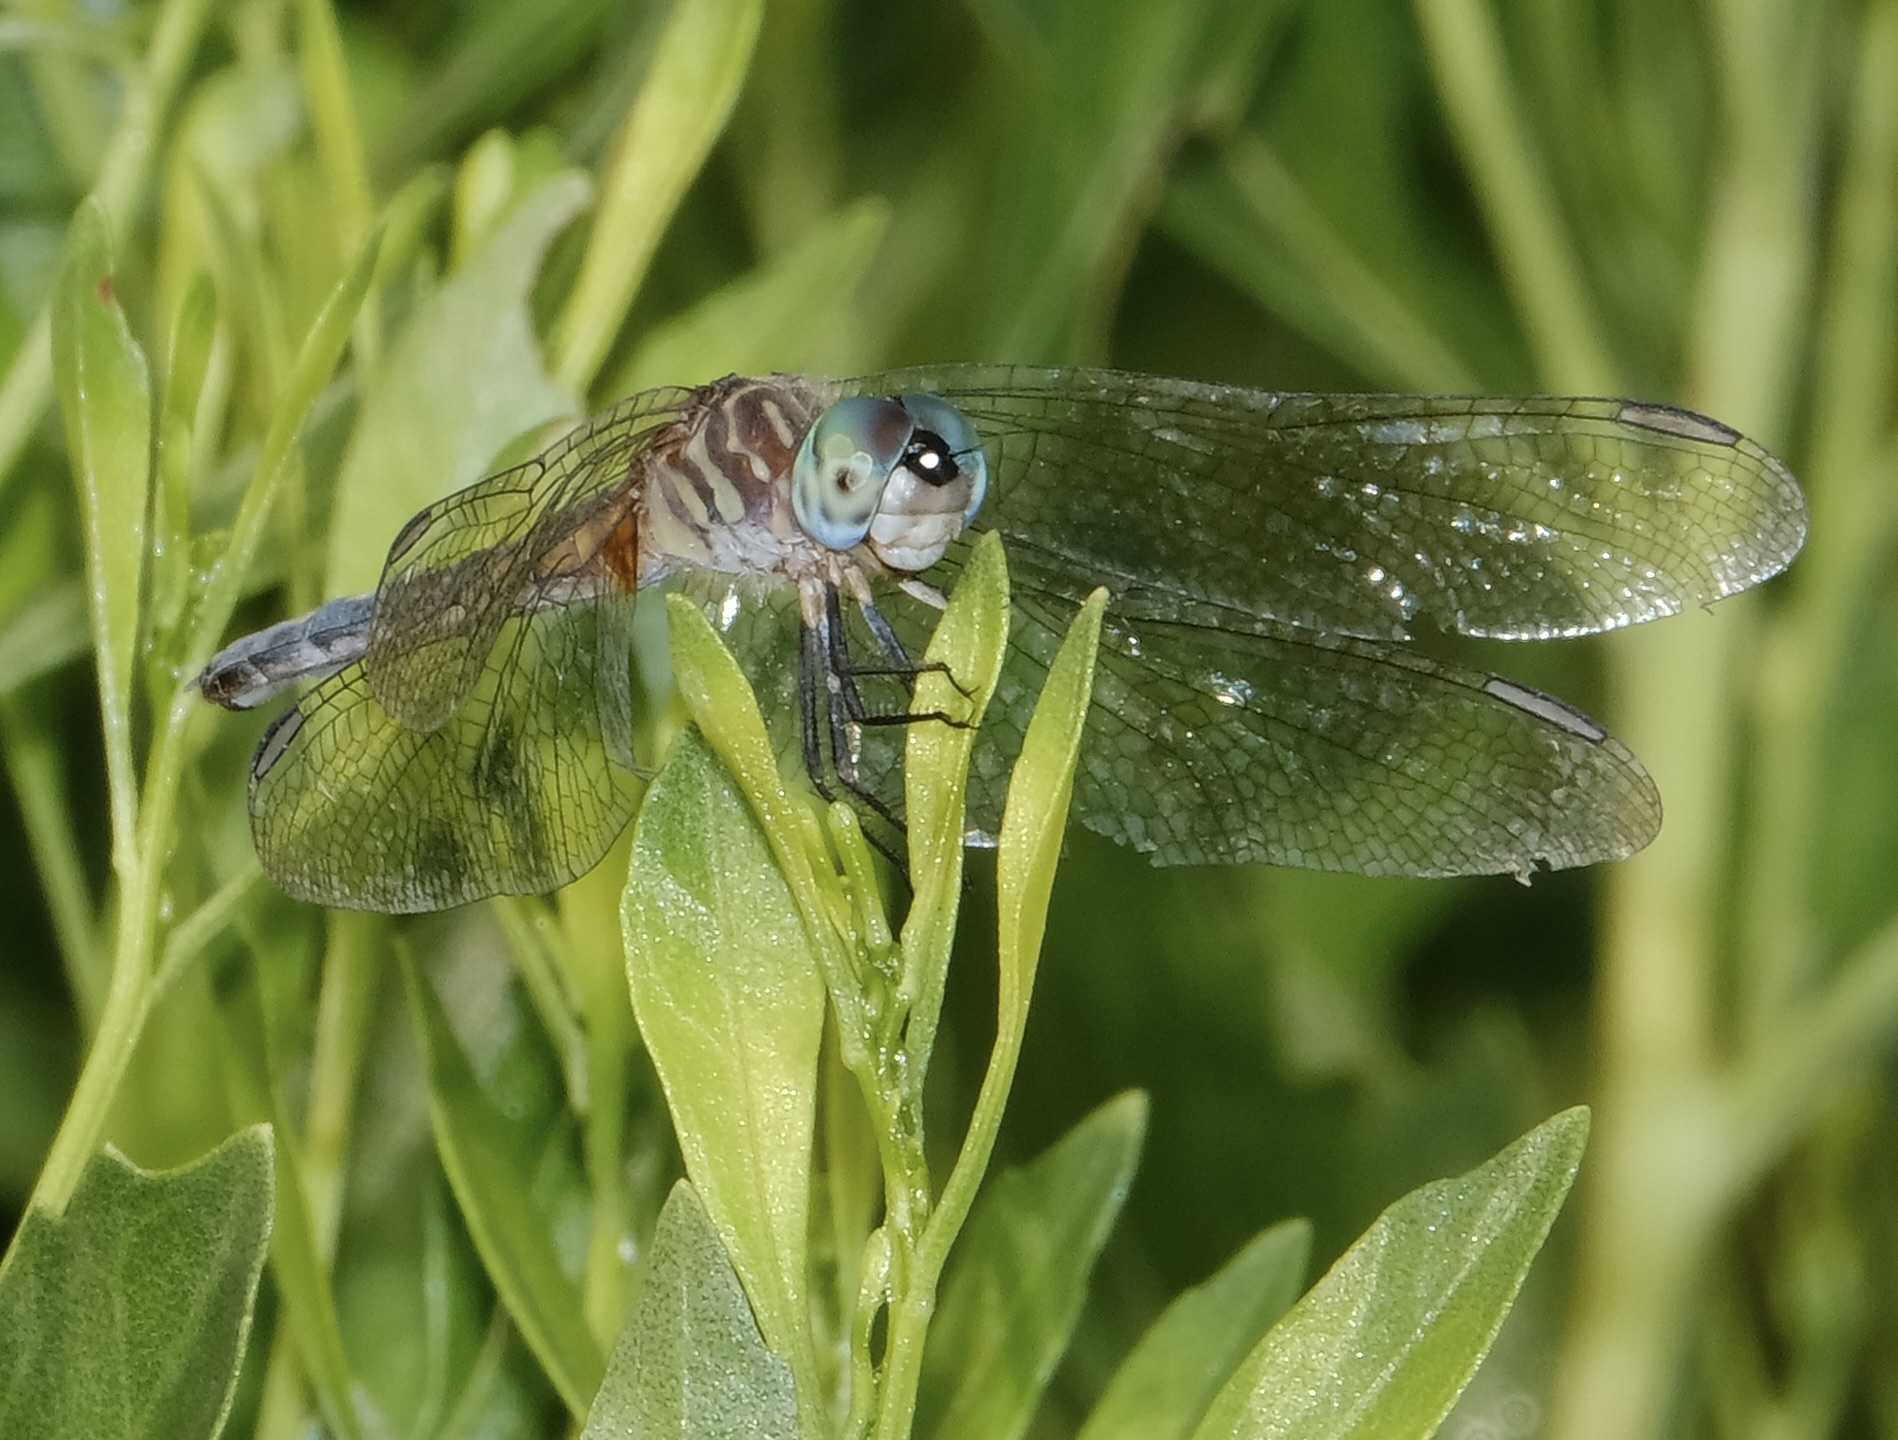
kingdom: Animalia
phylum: Arthropoda
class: Insecta
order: Odonata
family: Libellulidae
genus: Pachydiplax
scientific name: Pachydiplax longipennis
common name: Blue dasher
